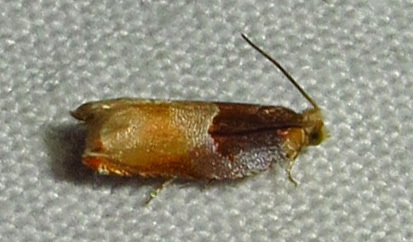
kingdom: Animalia
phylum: Arthropoda
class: Insecta
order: Lepidoptera
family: Tortricidae
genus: Ancylis
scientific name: Ancylis divisana
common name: Two-toned ancylis moth
